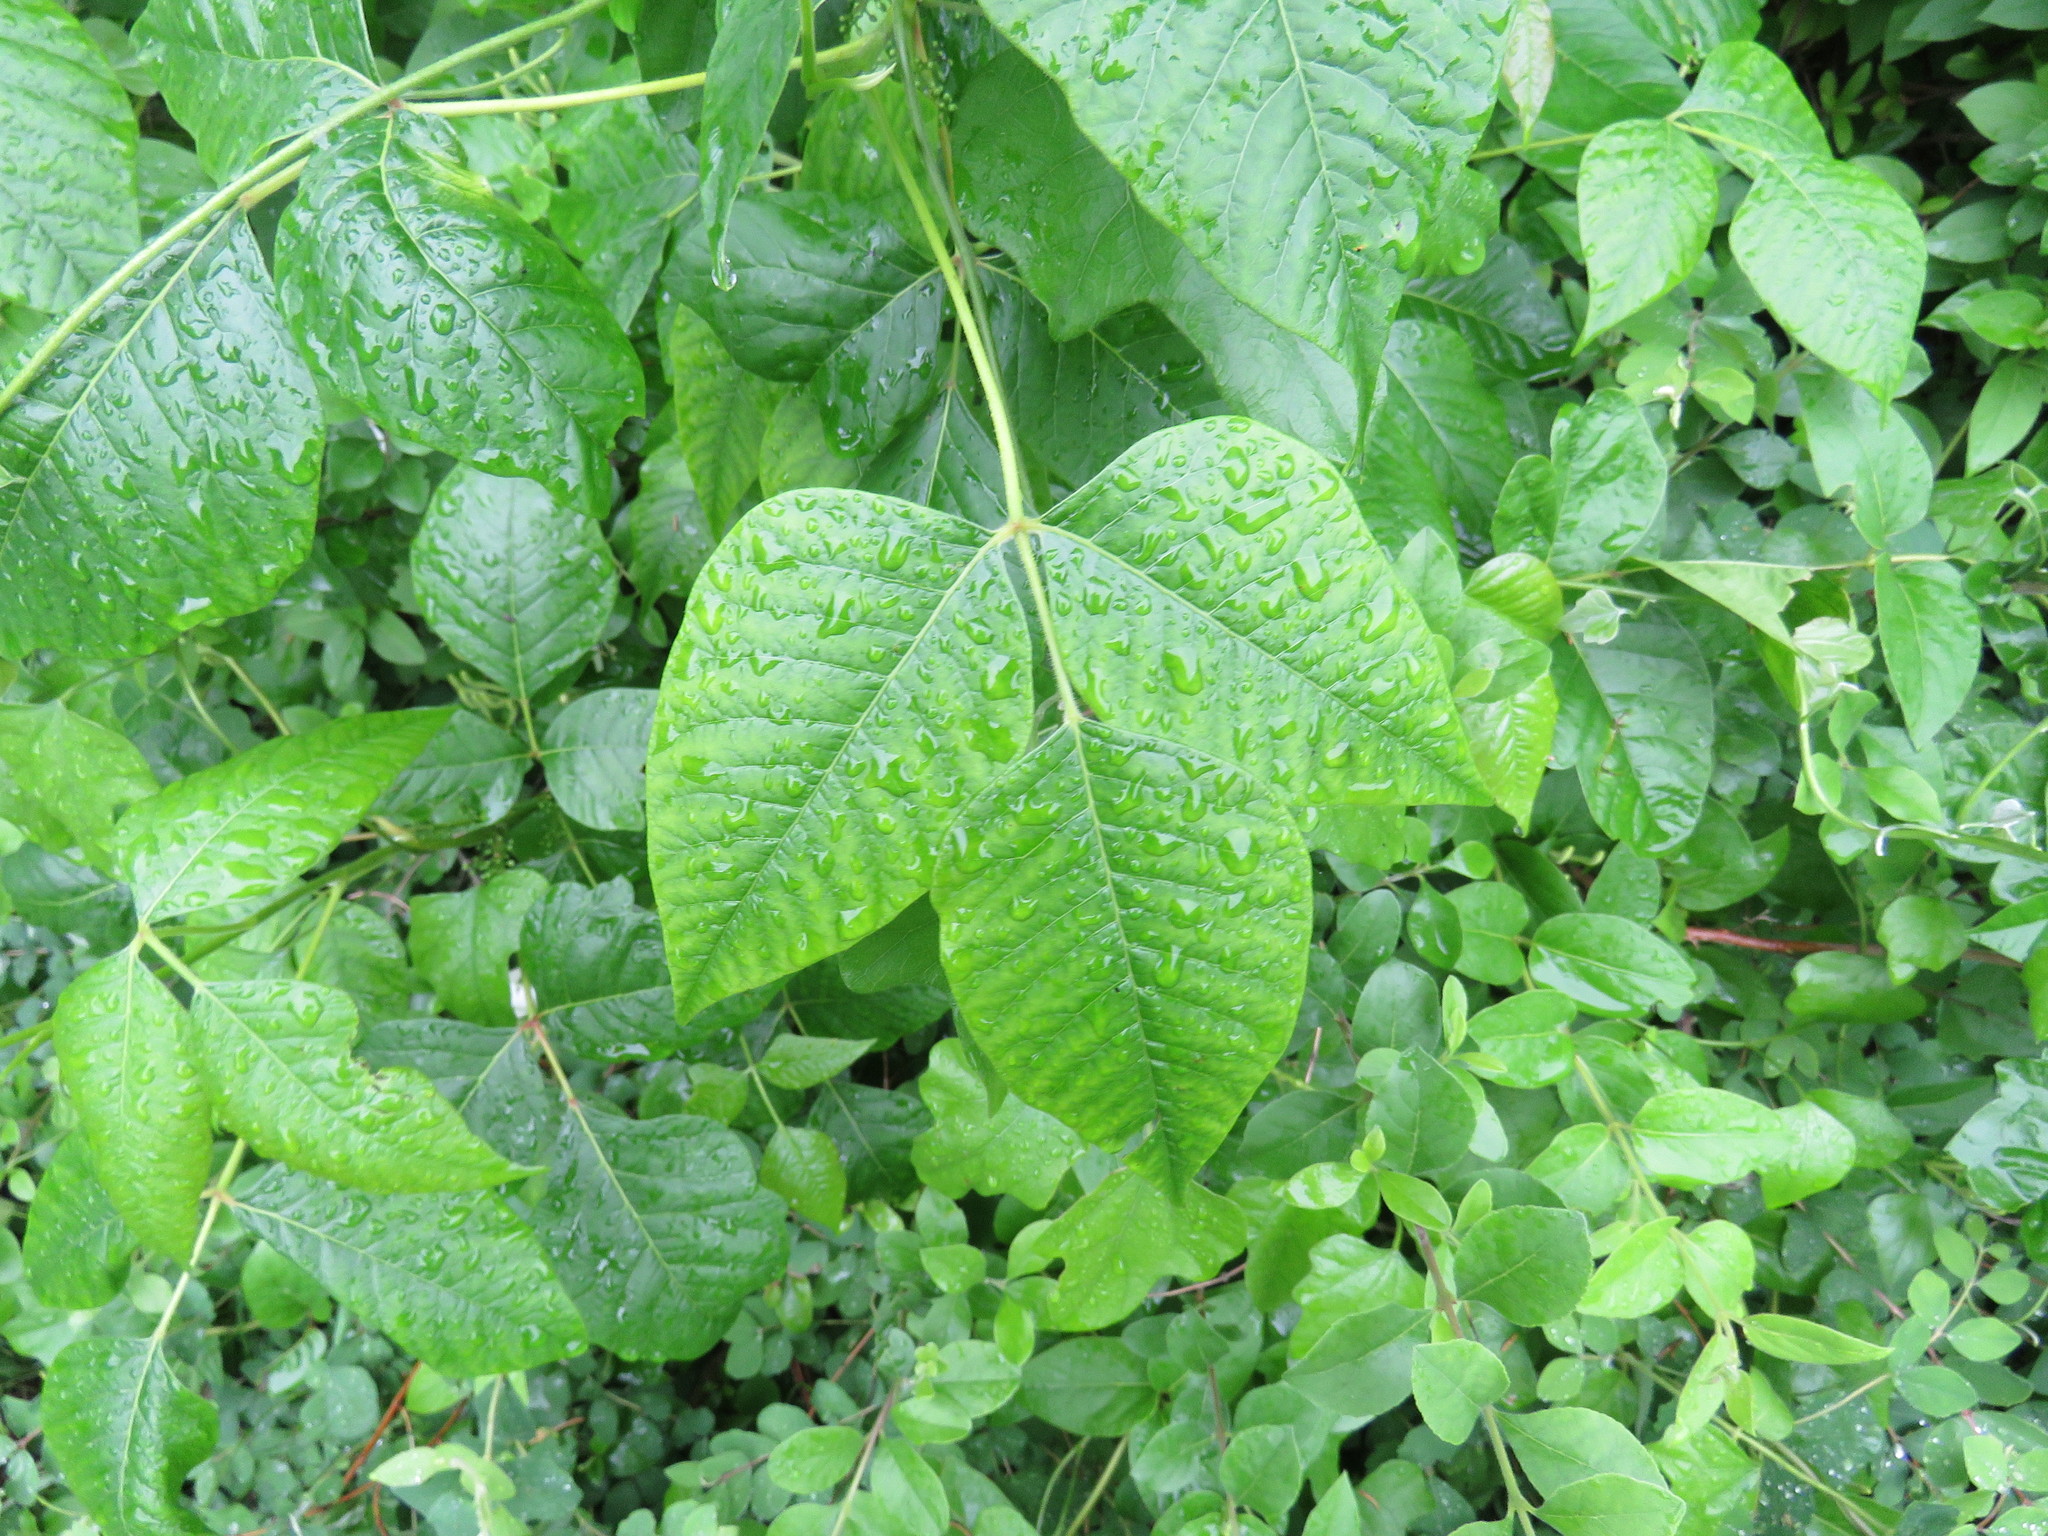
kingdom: Plantae
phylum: Tracheophyta
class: Magnoliopsida
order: Sapindales
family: Anacardiaceae
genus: Toxicodendron
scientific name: Toxicodendron radicans
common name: Poison ivy
